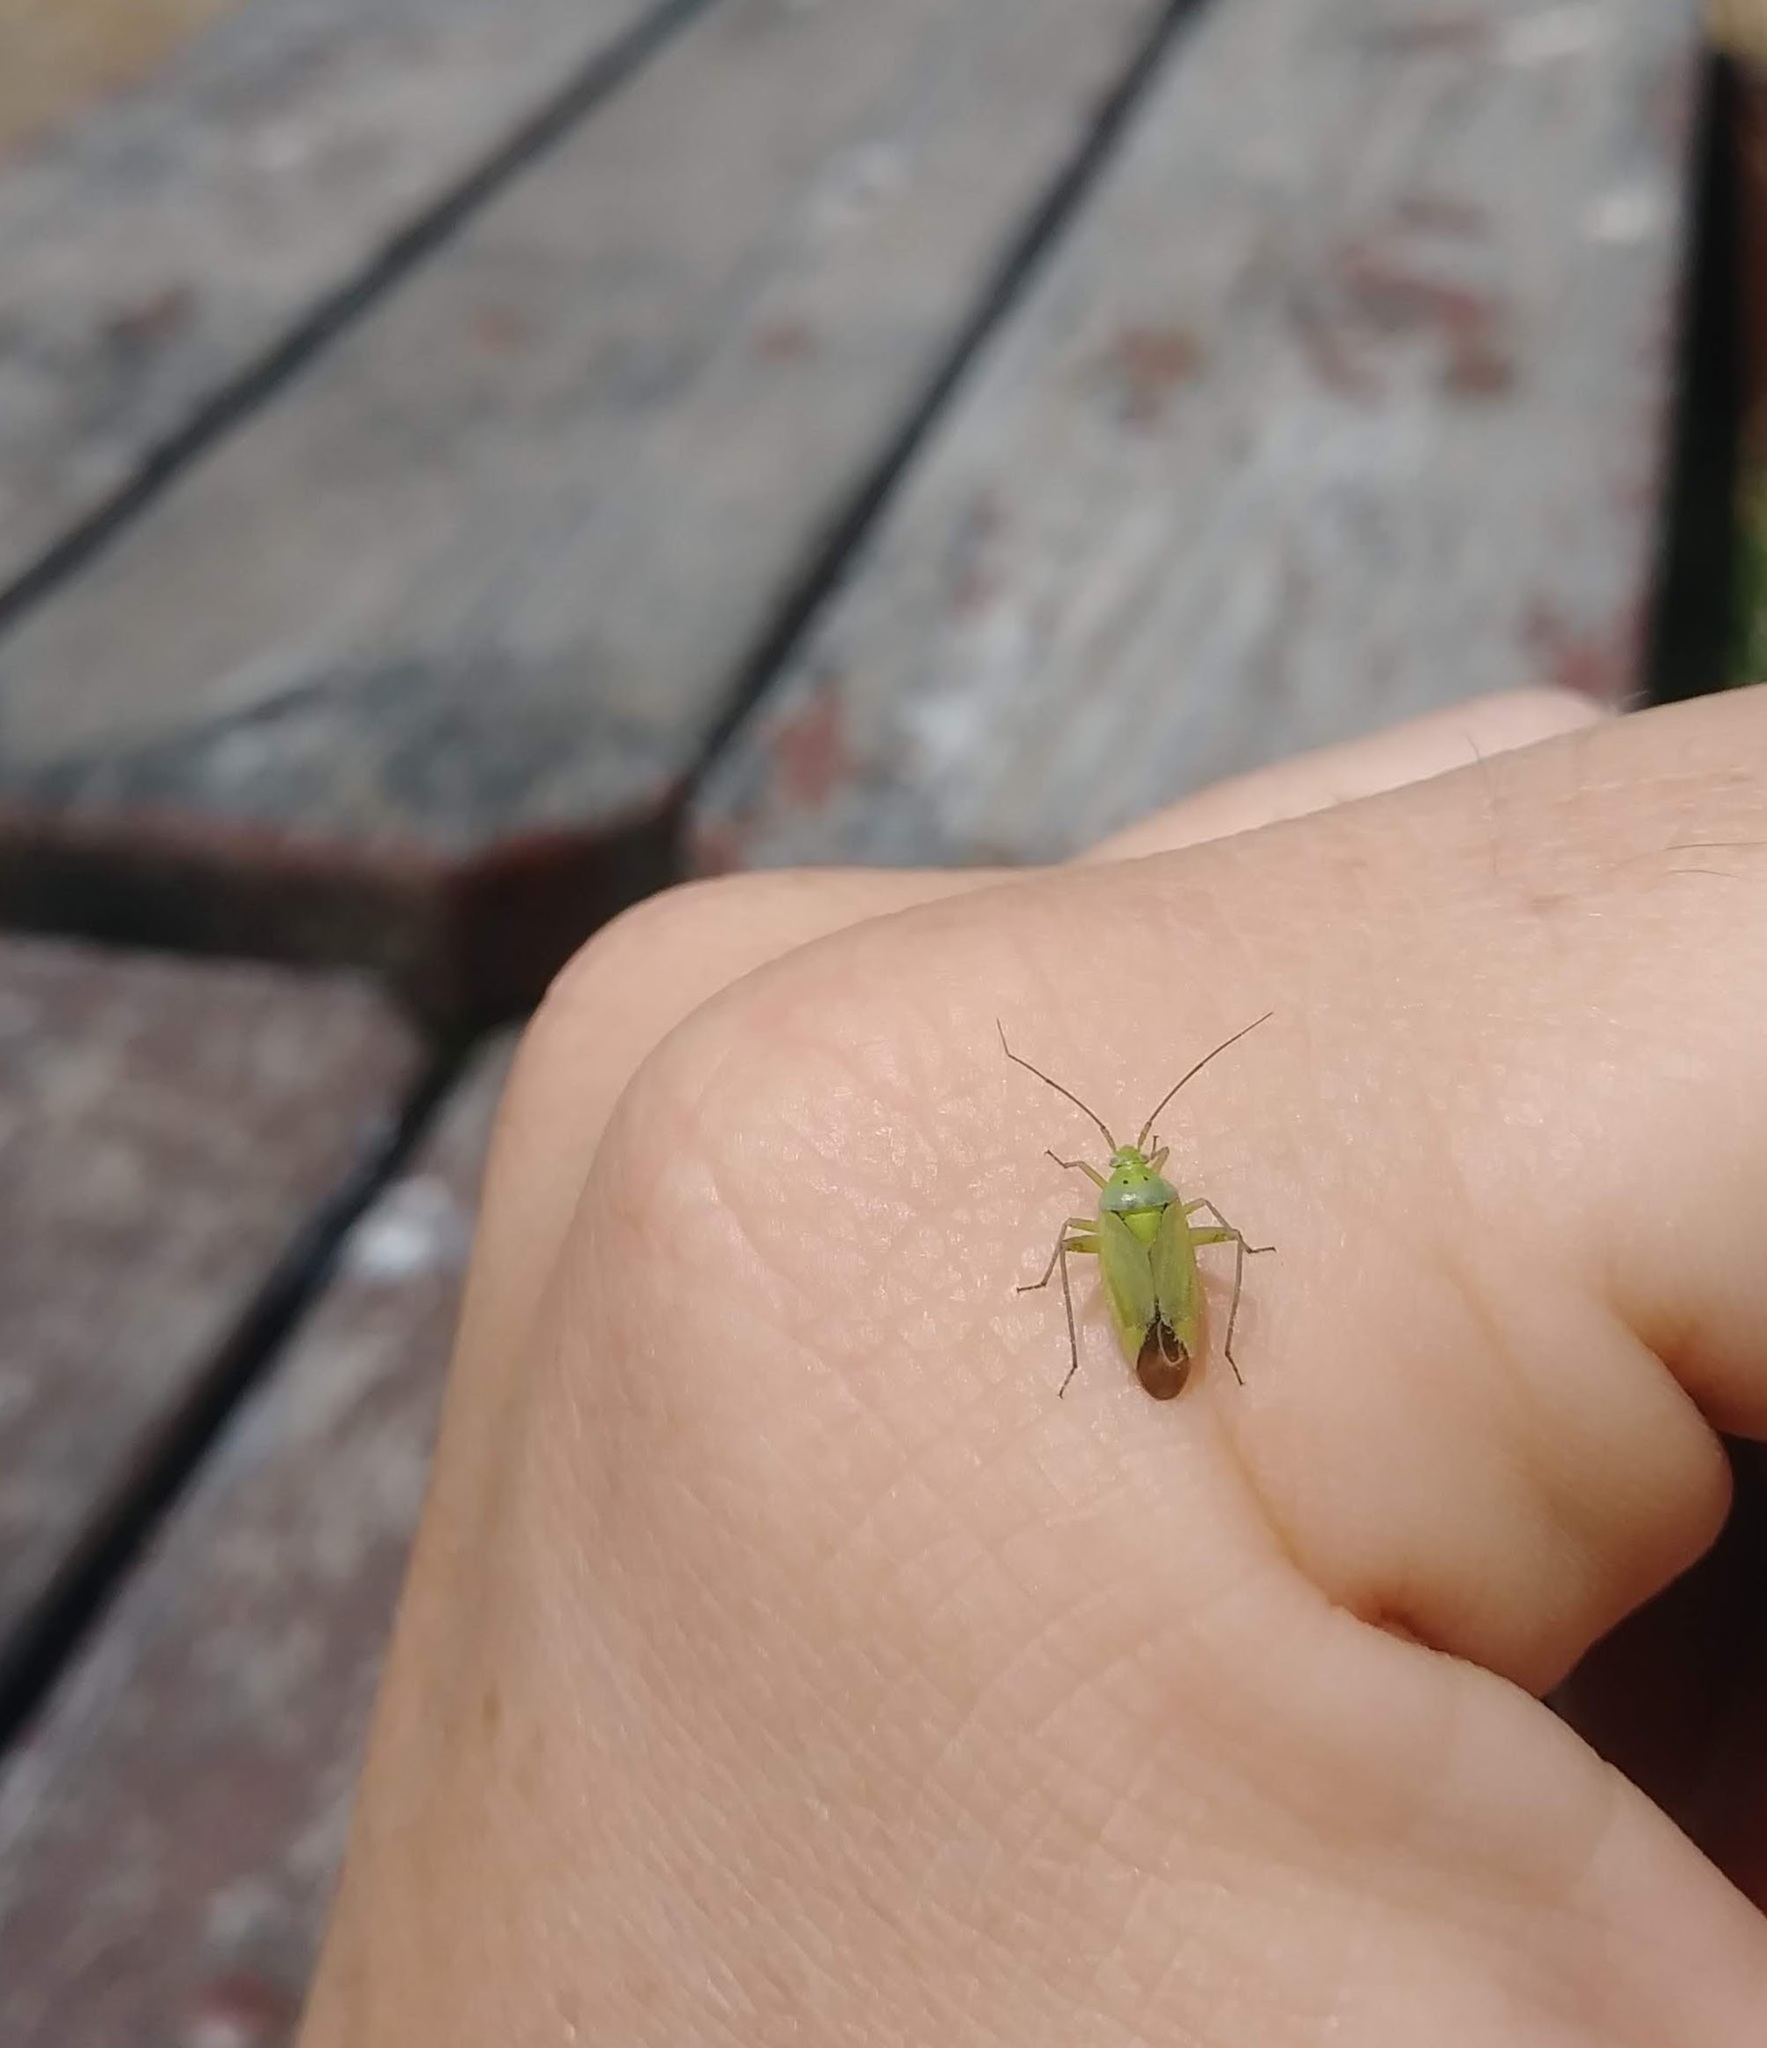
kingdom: Animalia
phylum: Arthropoda
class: Insecta
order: Hemiptera
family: Miridae
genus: Closterotomus
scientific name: Closterotomus norvegicus
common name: Plant bug
